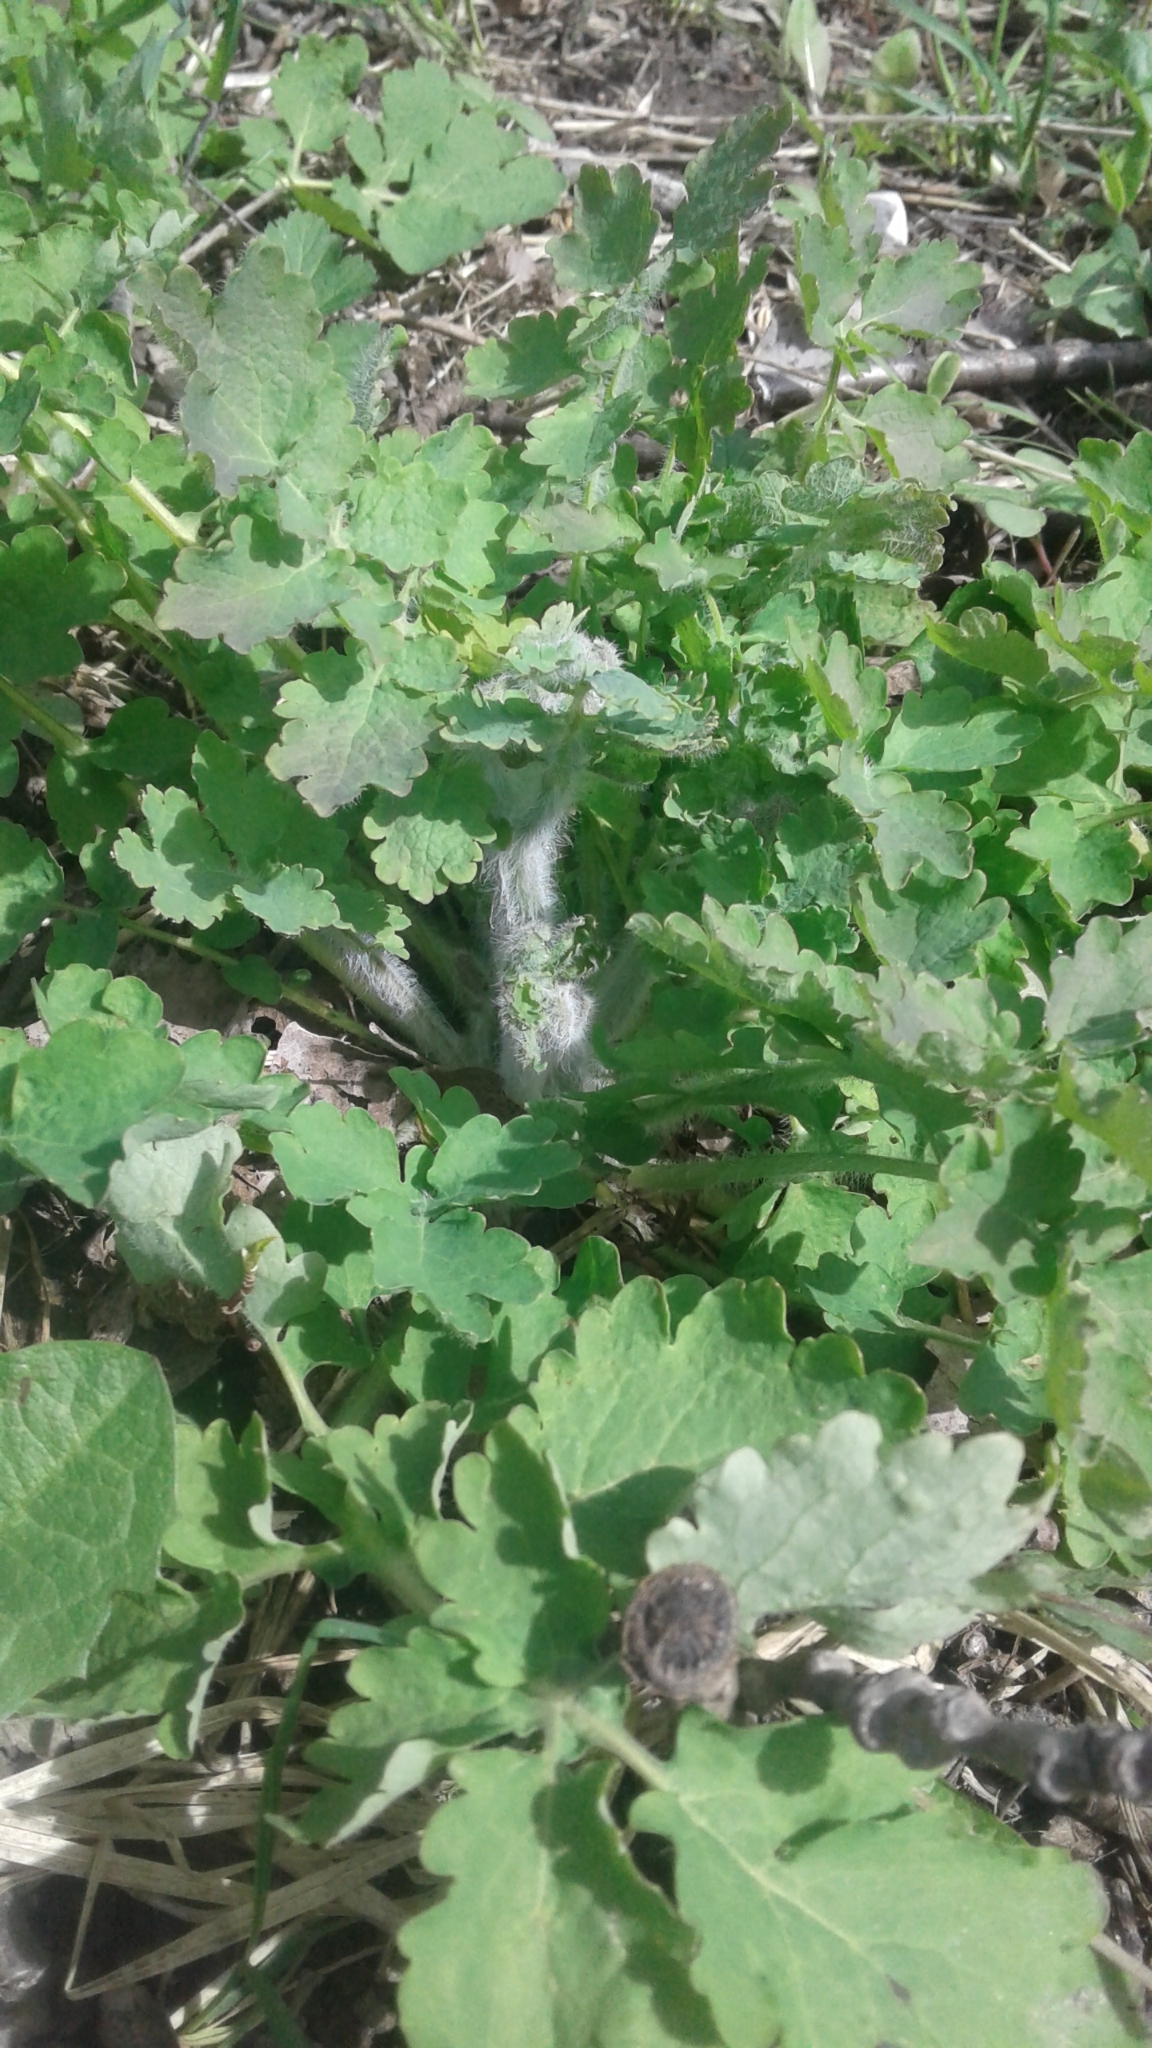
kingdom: Plantae
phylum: Tracheophyta
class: Magnoliopsida
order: Ranunculales
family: Papaveraceae
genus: Chelidonium
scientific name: Chelidonium majus
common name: Greater celandine
